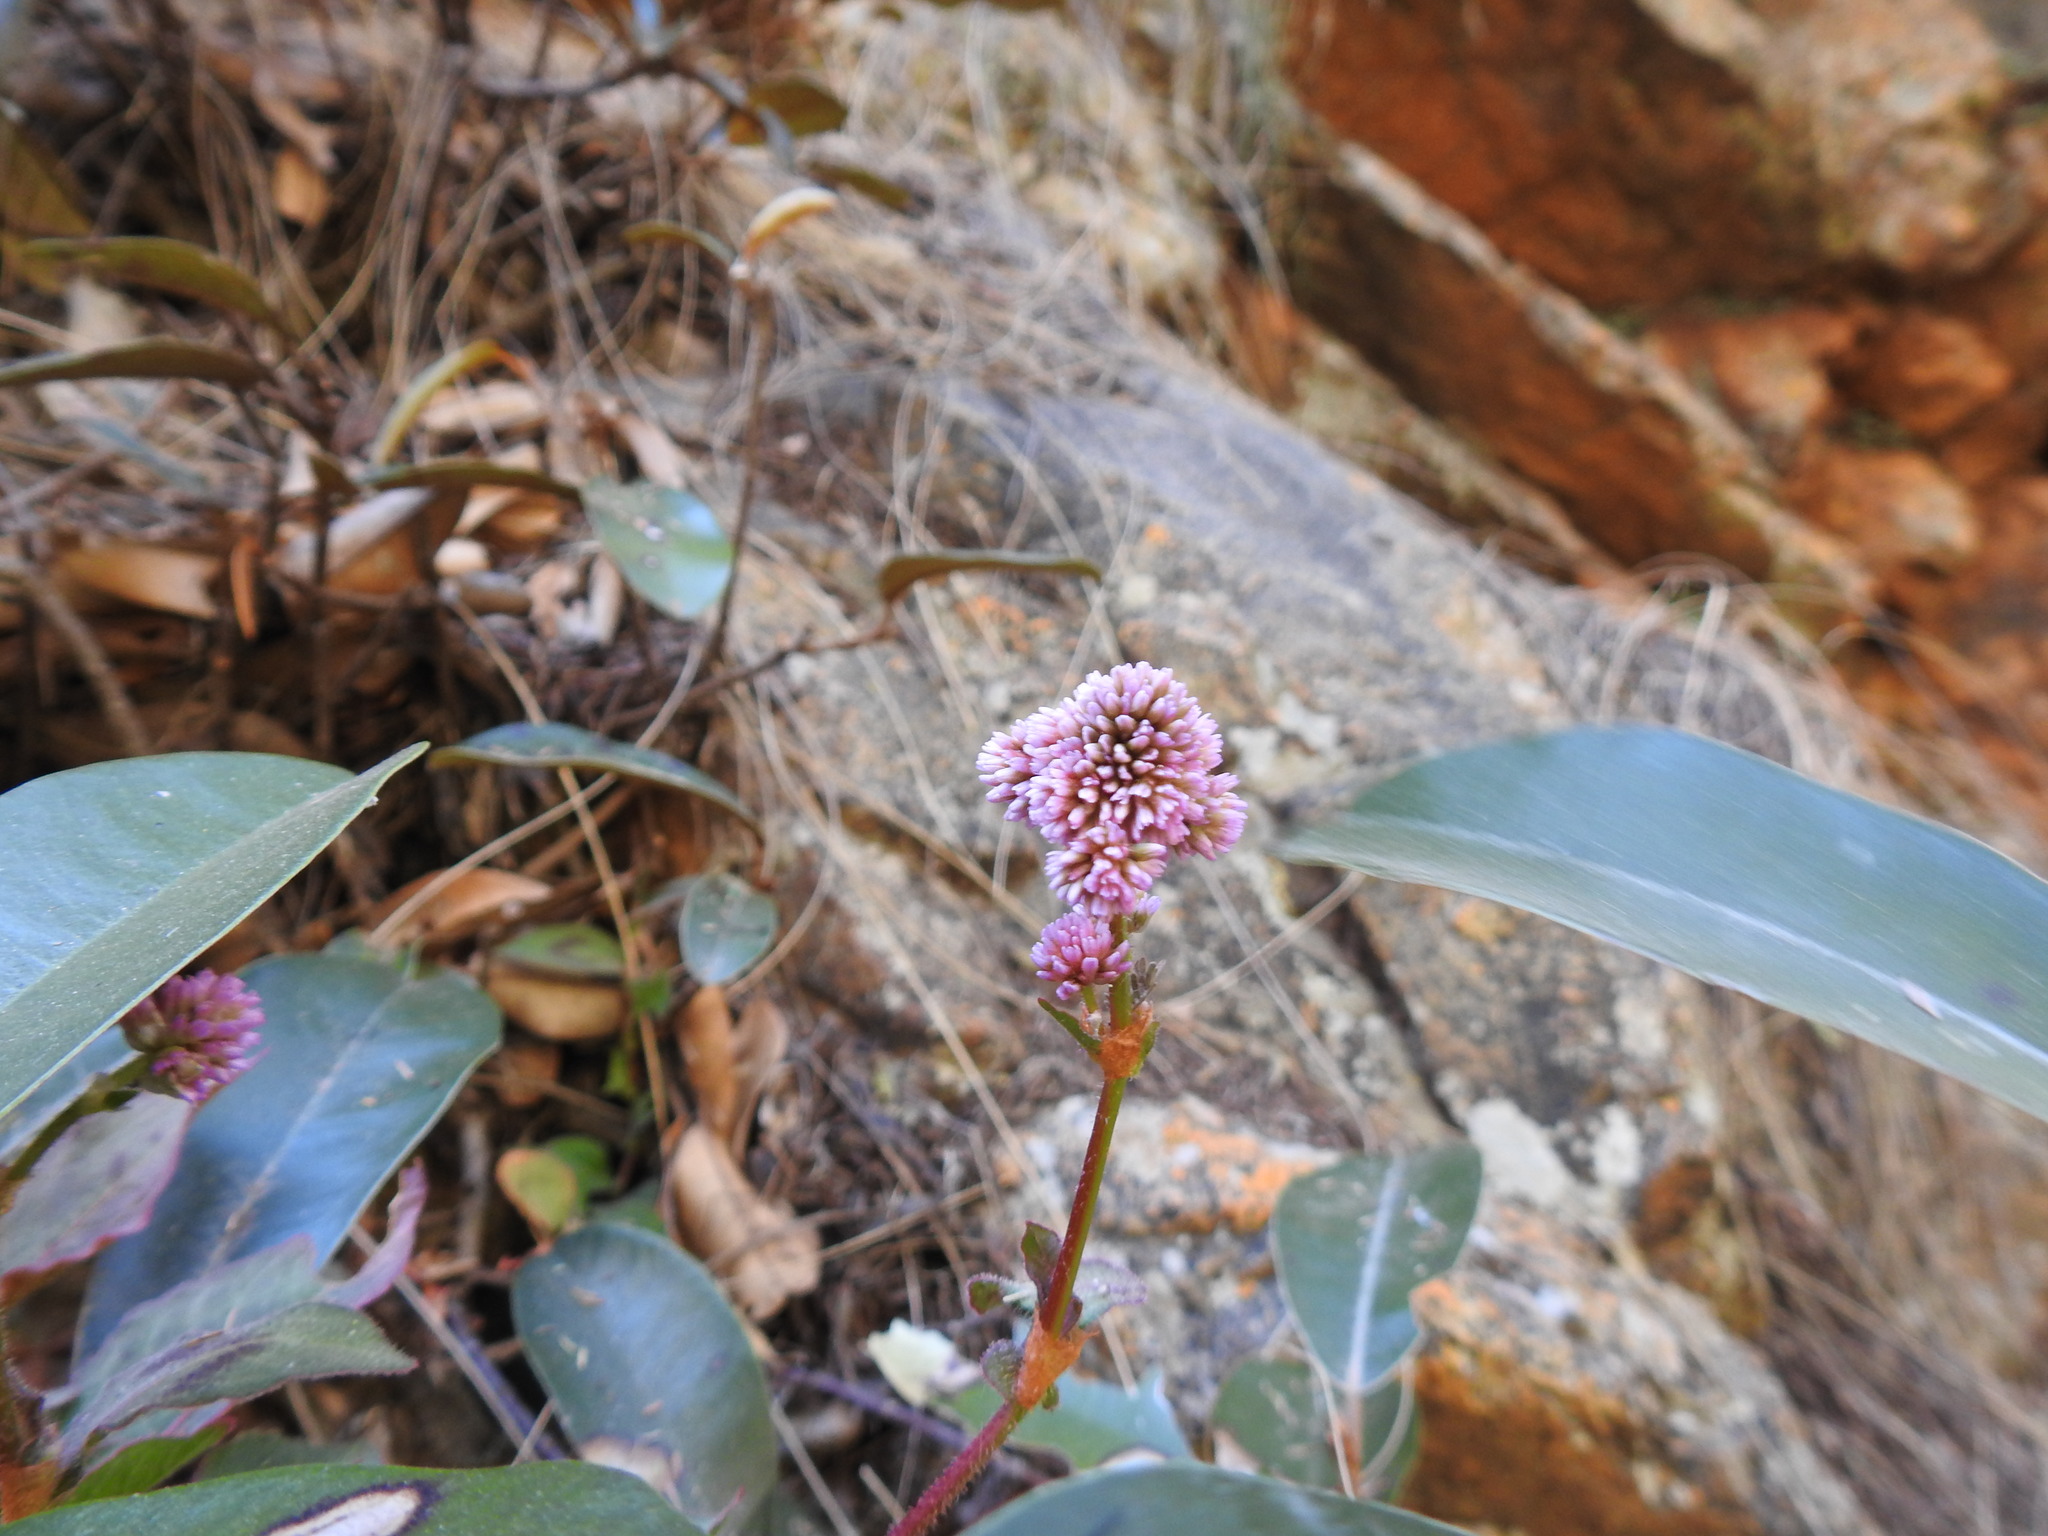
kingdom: Plantae
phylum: Tracheophyta
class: Magnoliopsida
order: Caryophyllales
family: Polygonaceae
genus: Persicaria
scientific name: Persicaria capitata
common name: Pinkhead smartweed
